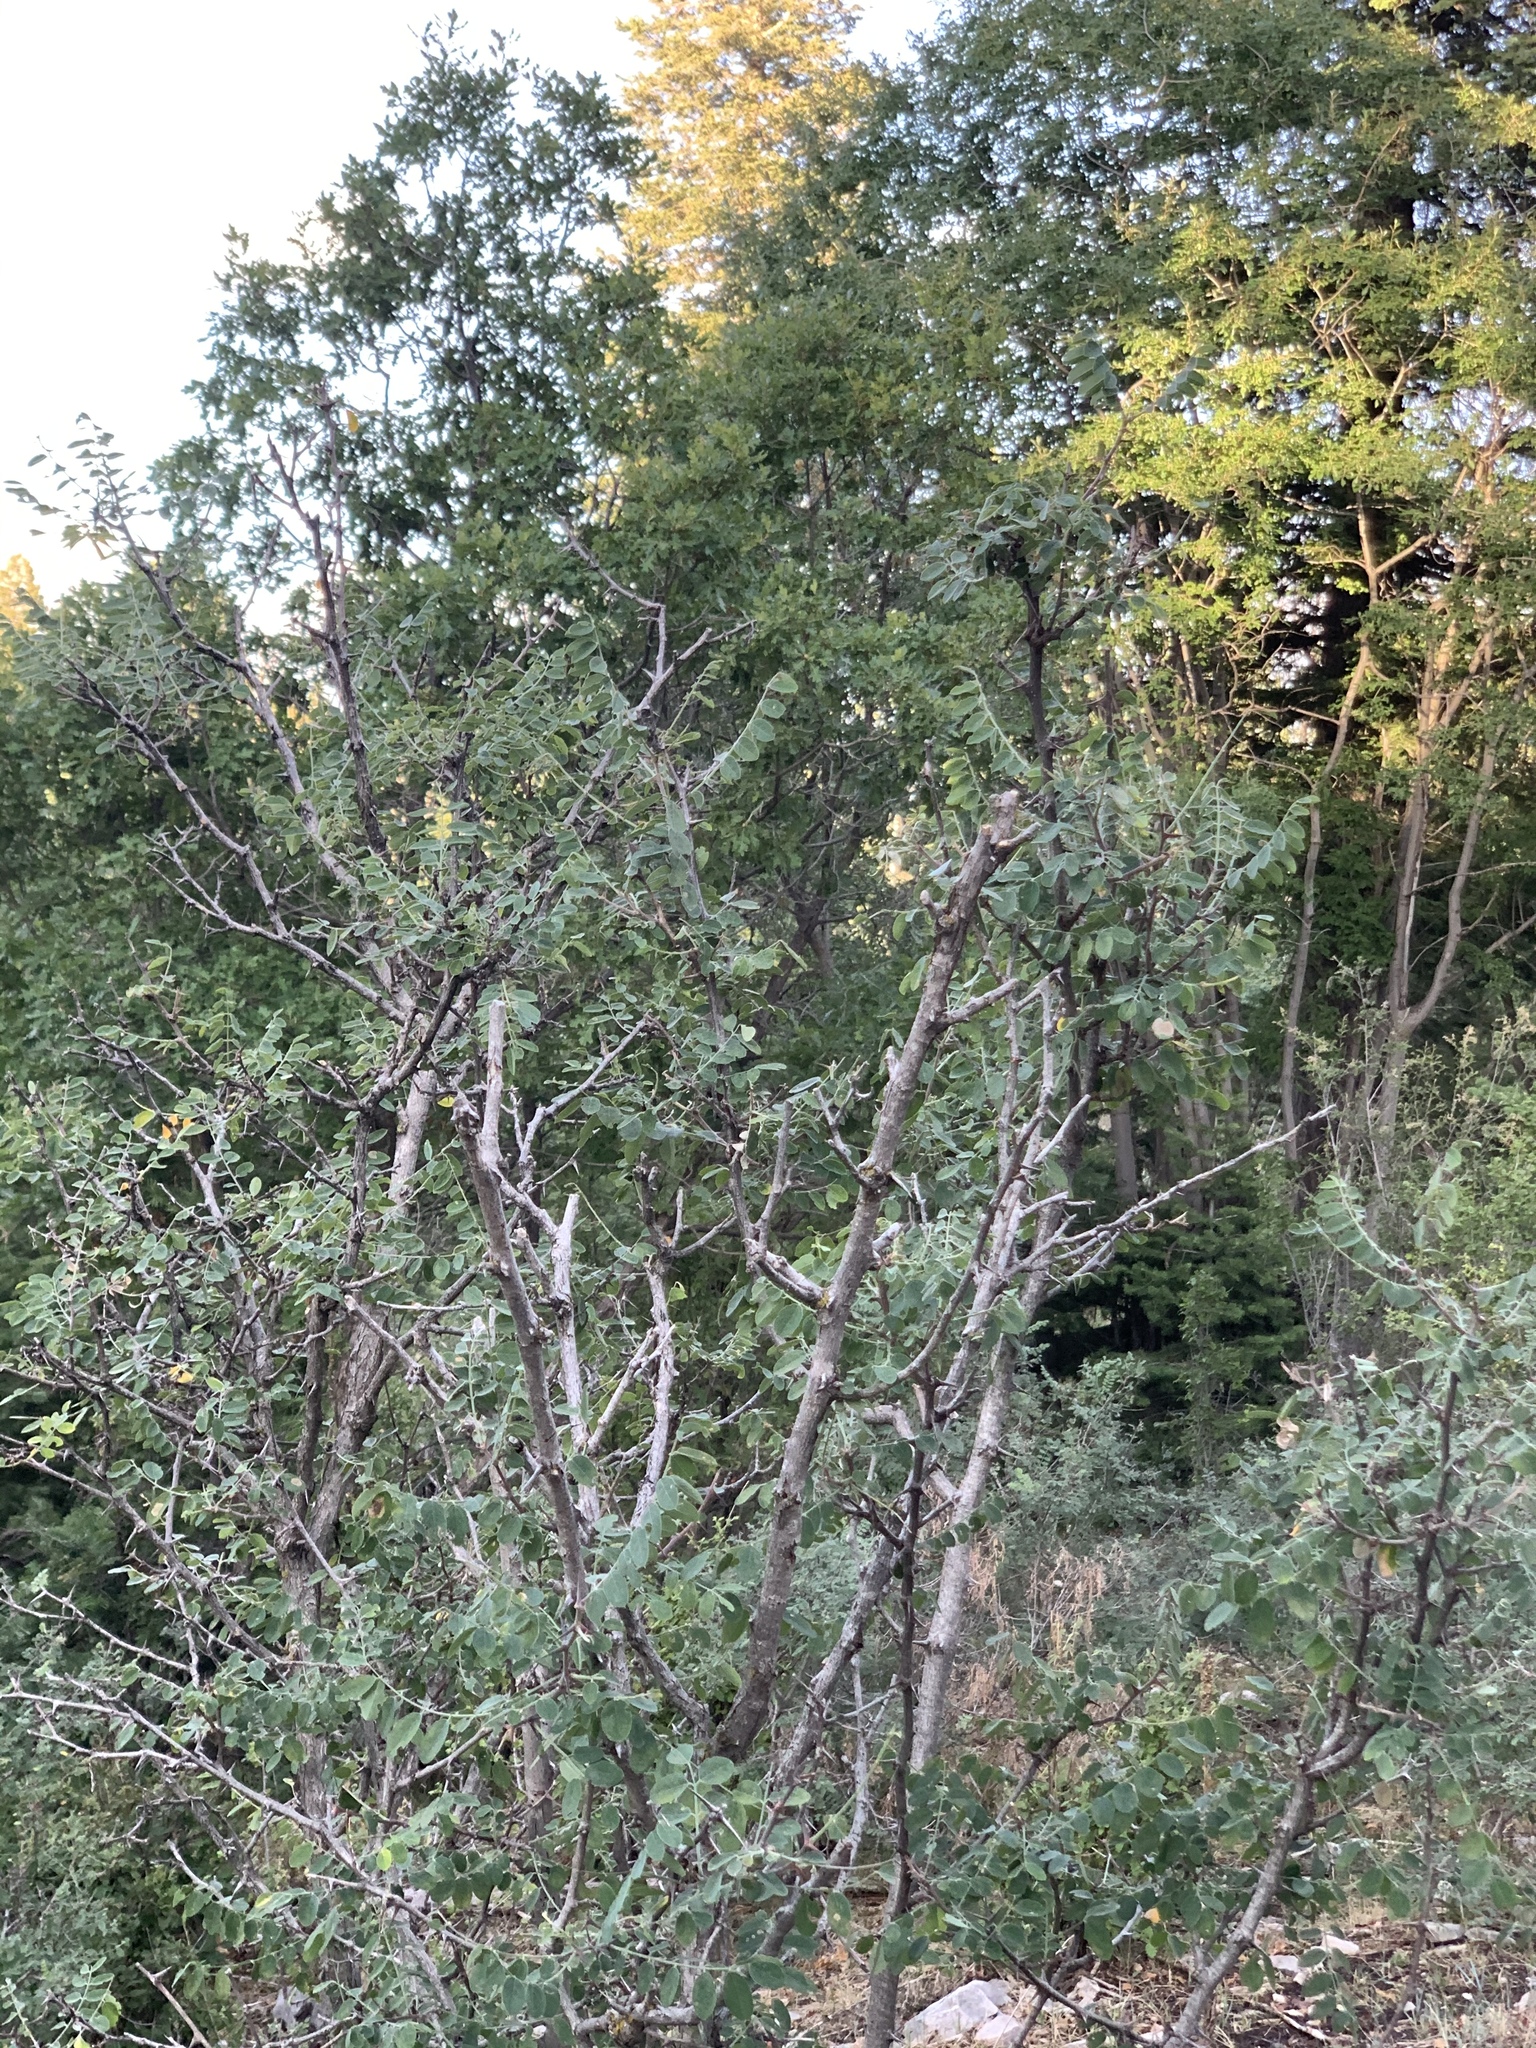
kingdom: Plantae
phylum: Tracheophyta
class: Magnoliopsida
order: Fabales
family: Fabaceae
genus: Robinia
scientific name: Robinia neomexicana
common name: New mexico locust
